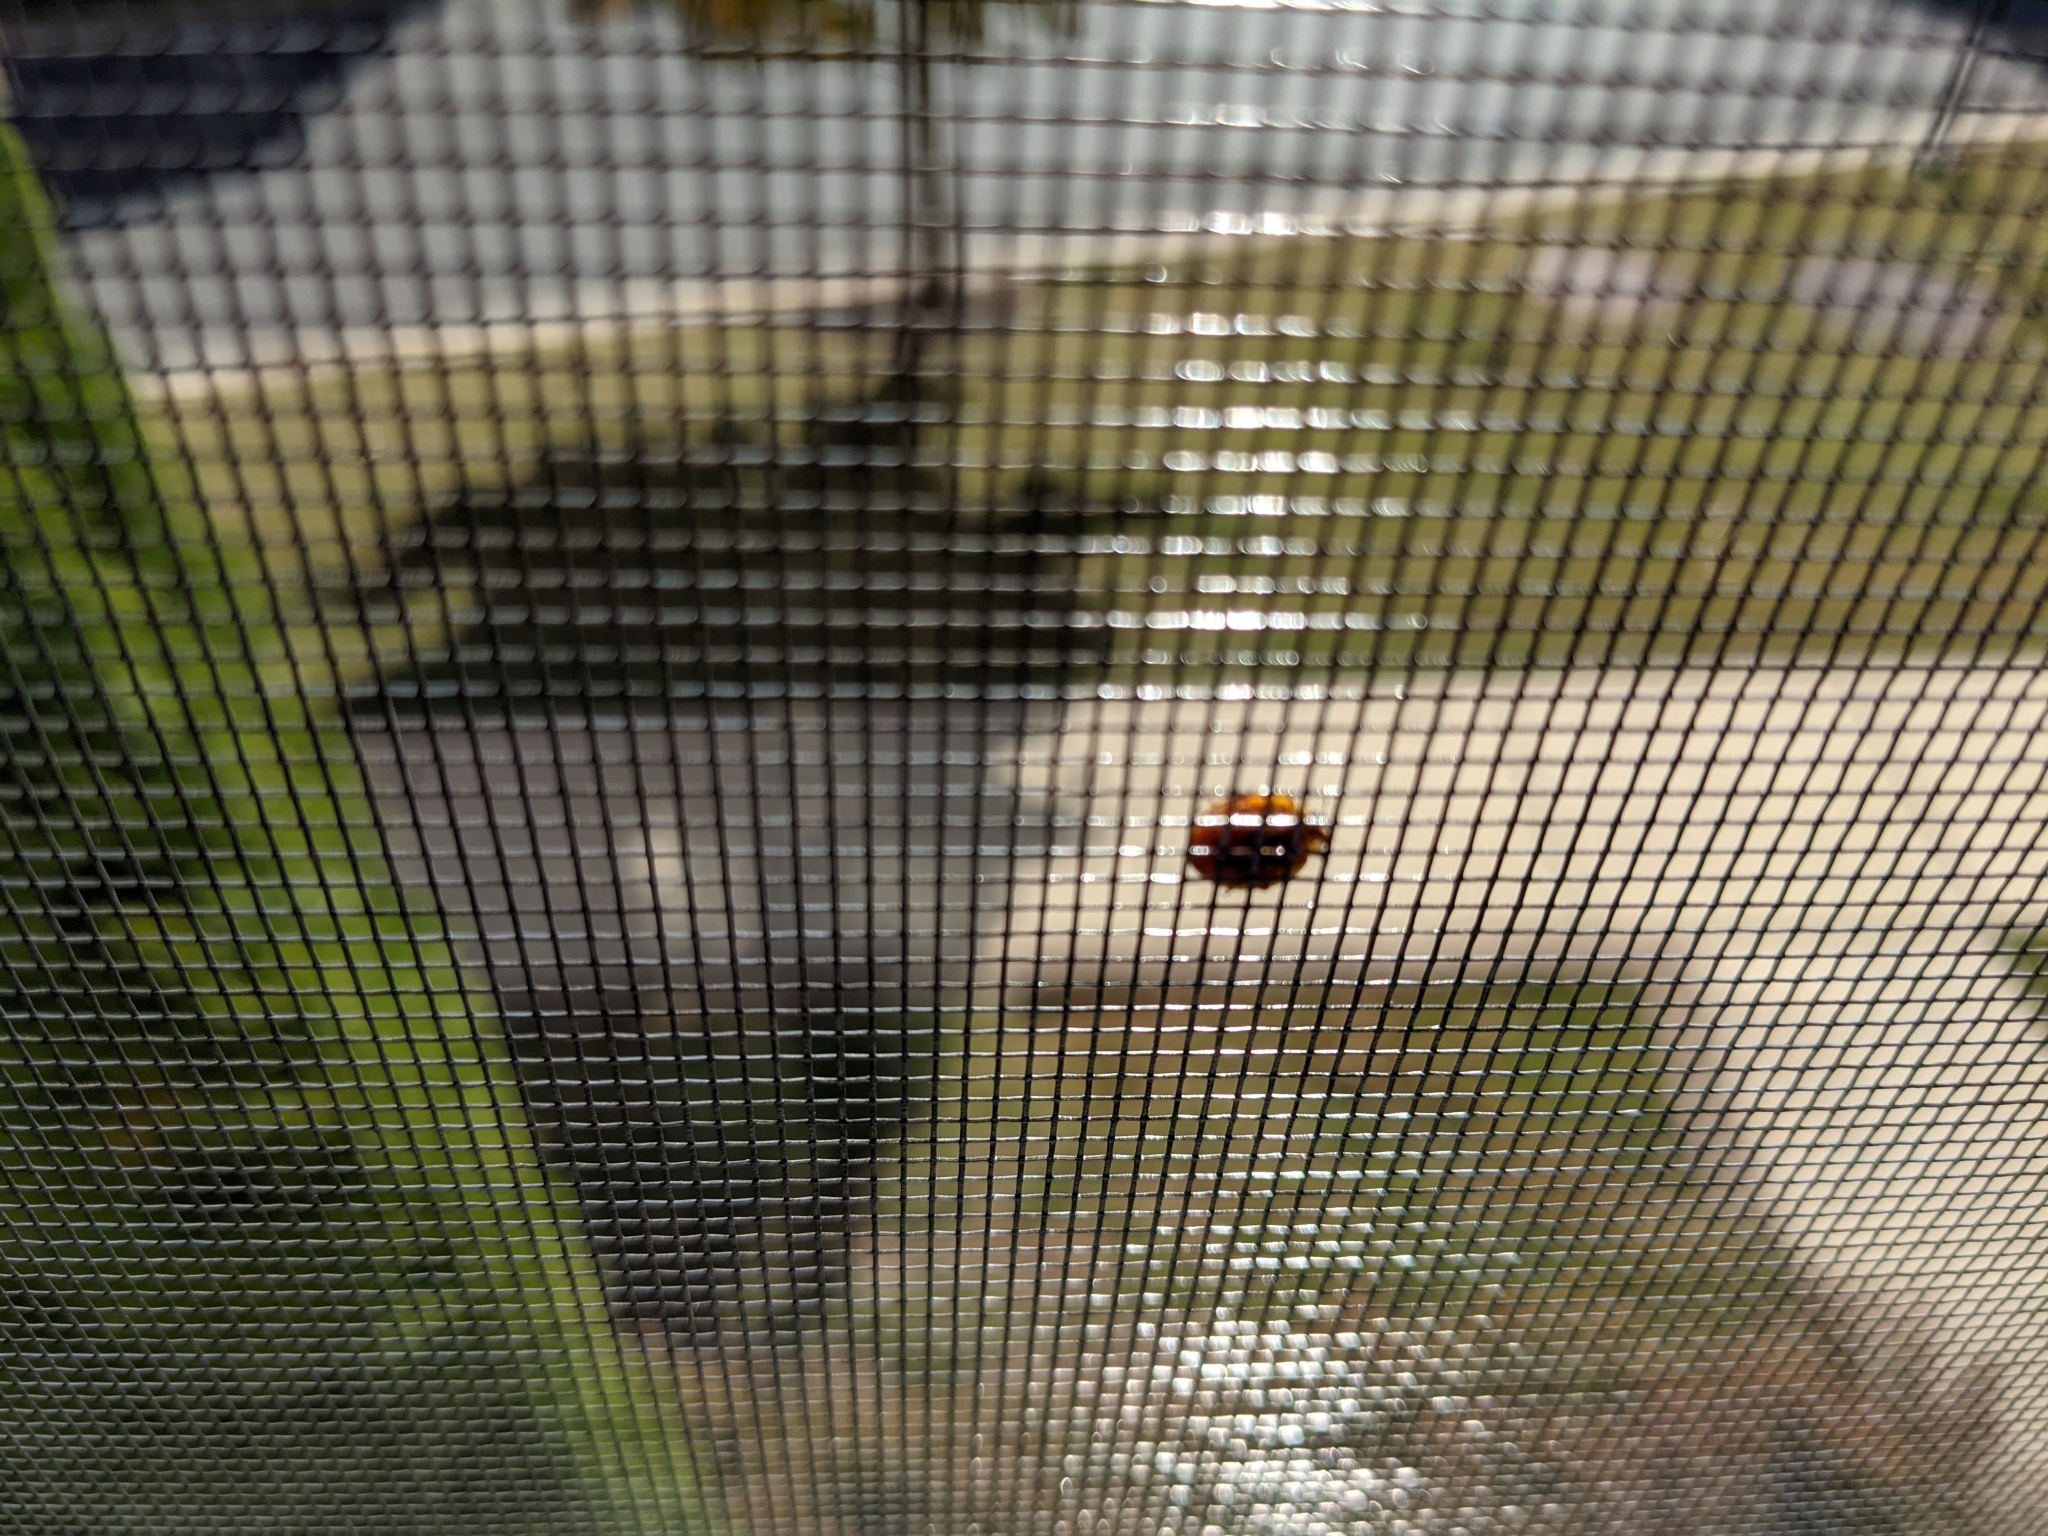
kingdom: Animalia
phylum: Arthropoda
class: Insecta
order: Coleoptera
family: Coccinellidae
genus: Harmonia
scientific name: Harmonia axyridis
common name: Harlequin ladybird
